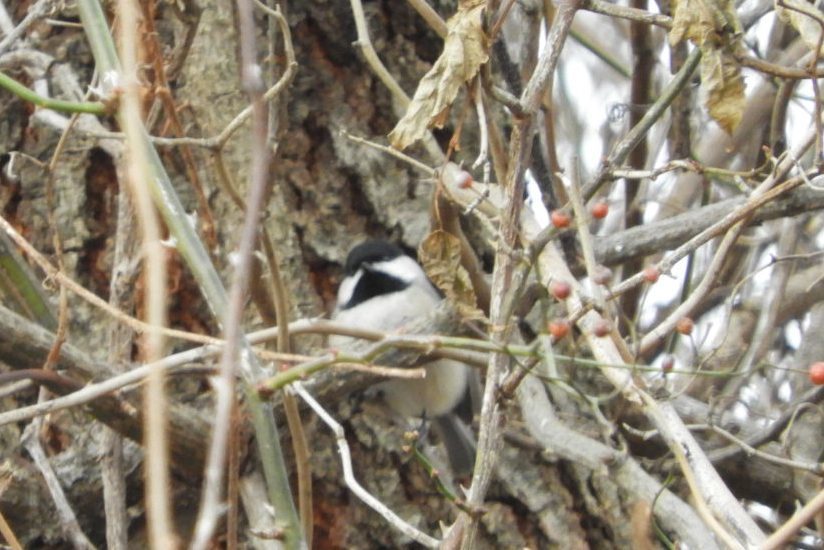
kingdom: Animalia
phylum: Chordata
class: Aves
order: Passeriformes
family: Paridae
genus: Poecile
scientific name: Poecile carolinensis
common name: Carolina chickadee
